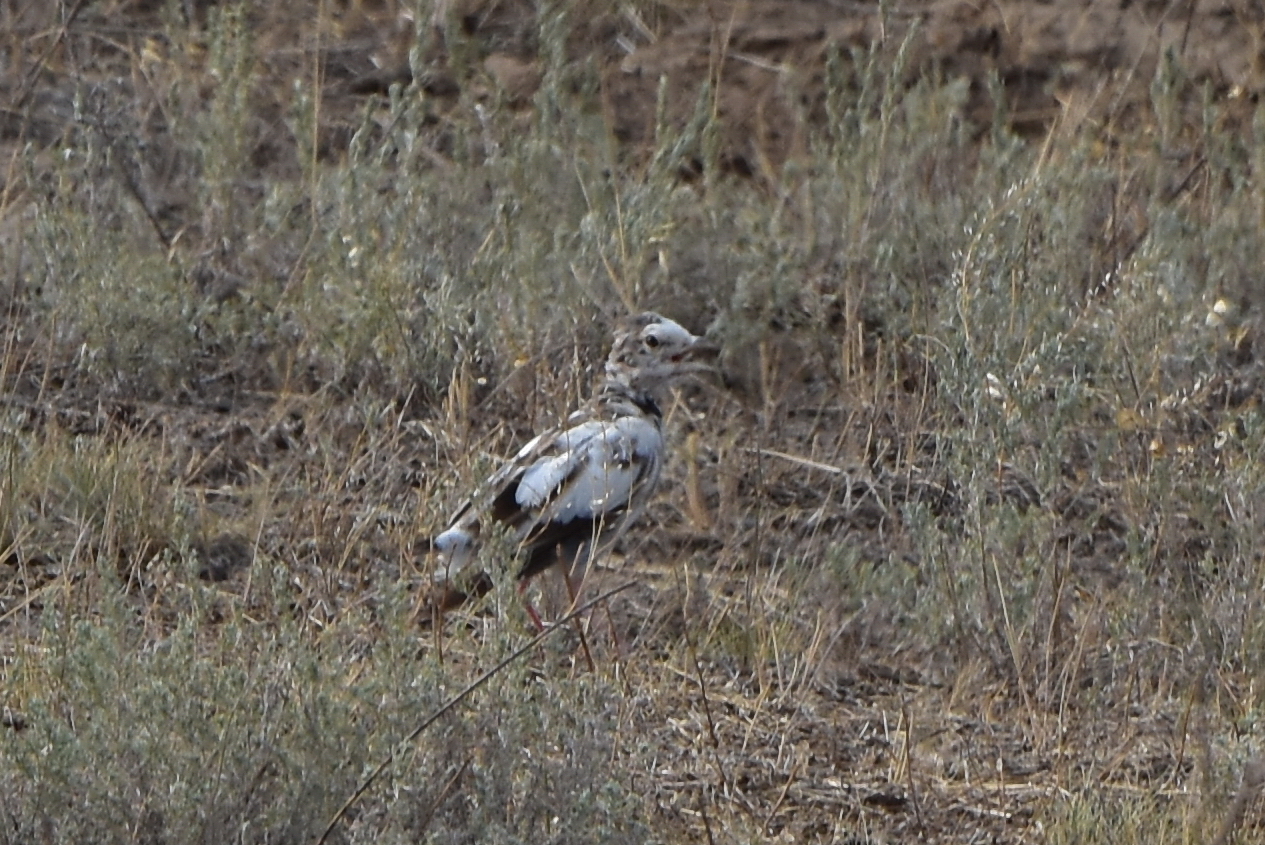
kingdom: Animalia
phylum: Chordata
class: Aves
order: Passeriformes
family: Alaudidae
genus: Melanocorypha
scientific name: Melanocorypha calandra
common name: Calandra lark
